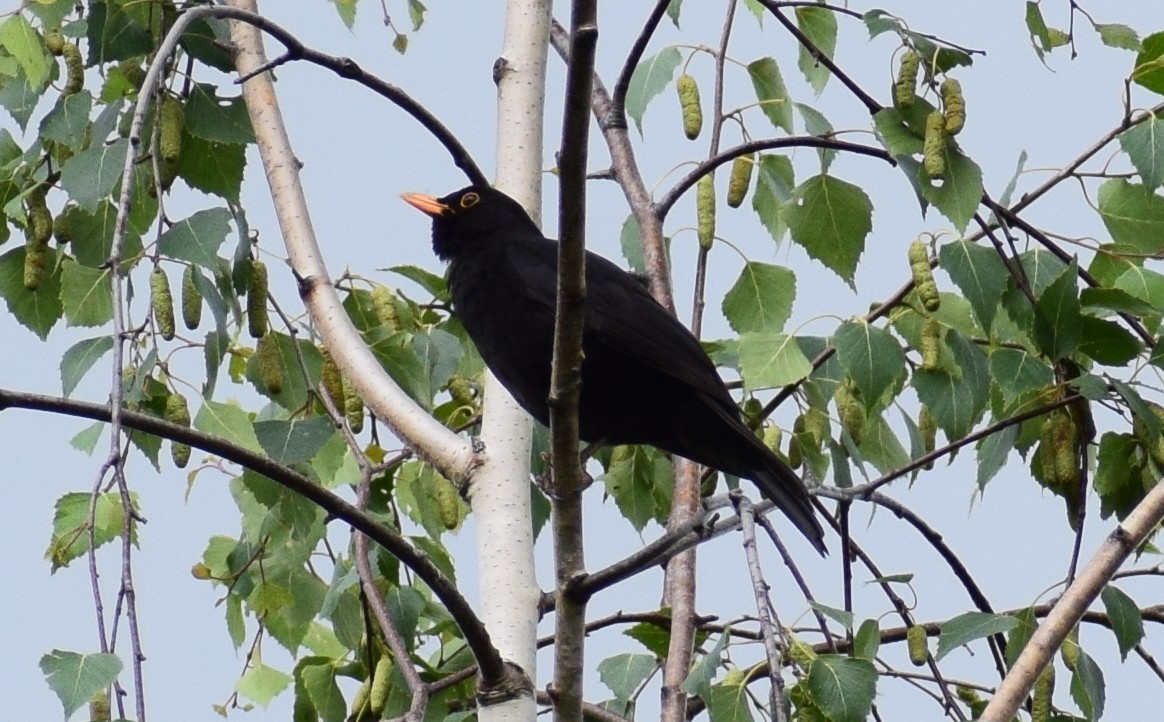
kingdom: Animalia
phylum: Chordata
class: Aves
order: Passeriformes
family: Turdidae
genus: Turdus
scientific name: Turdus merula
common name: Common blackbird
